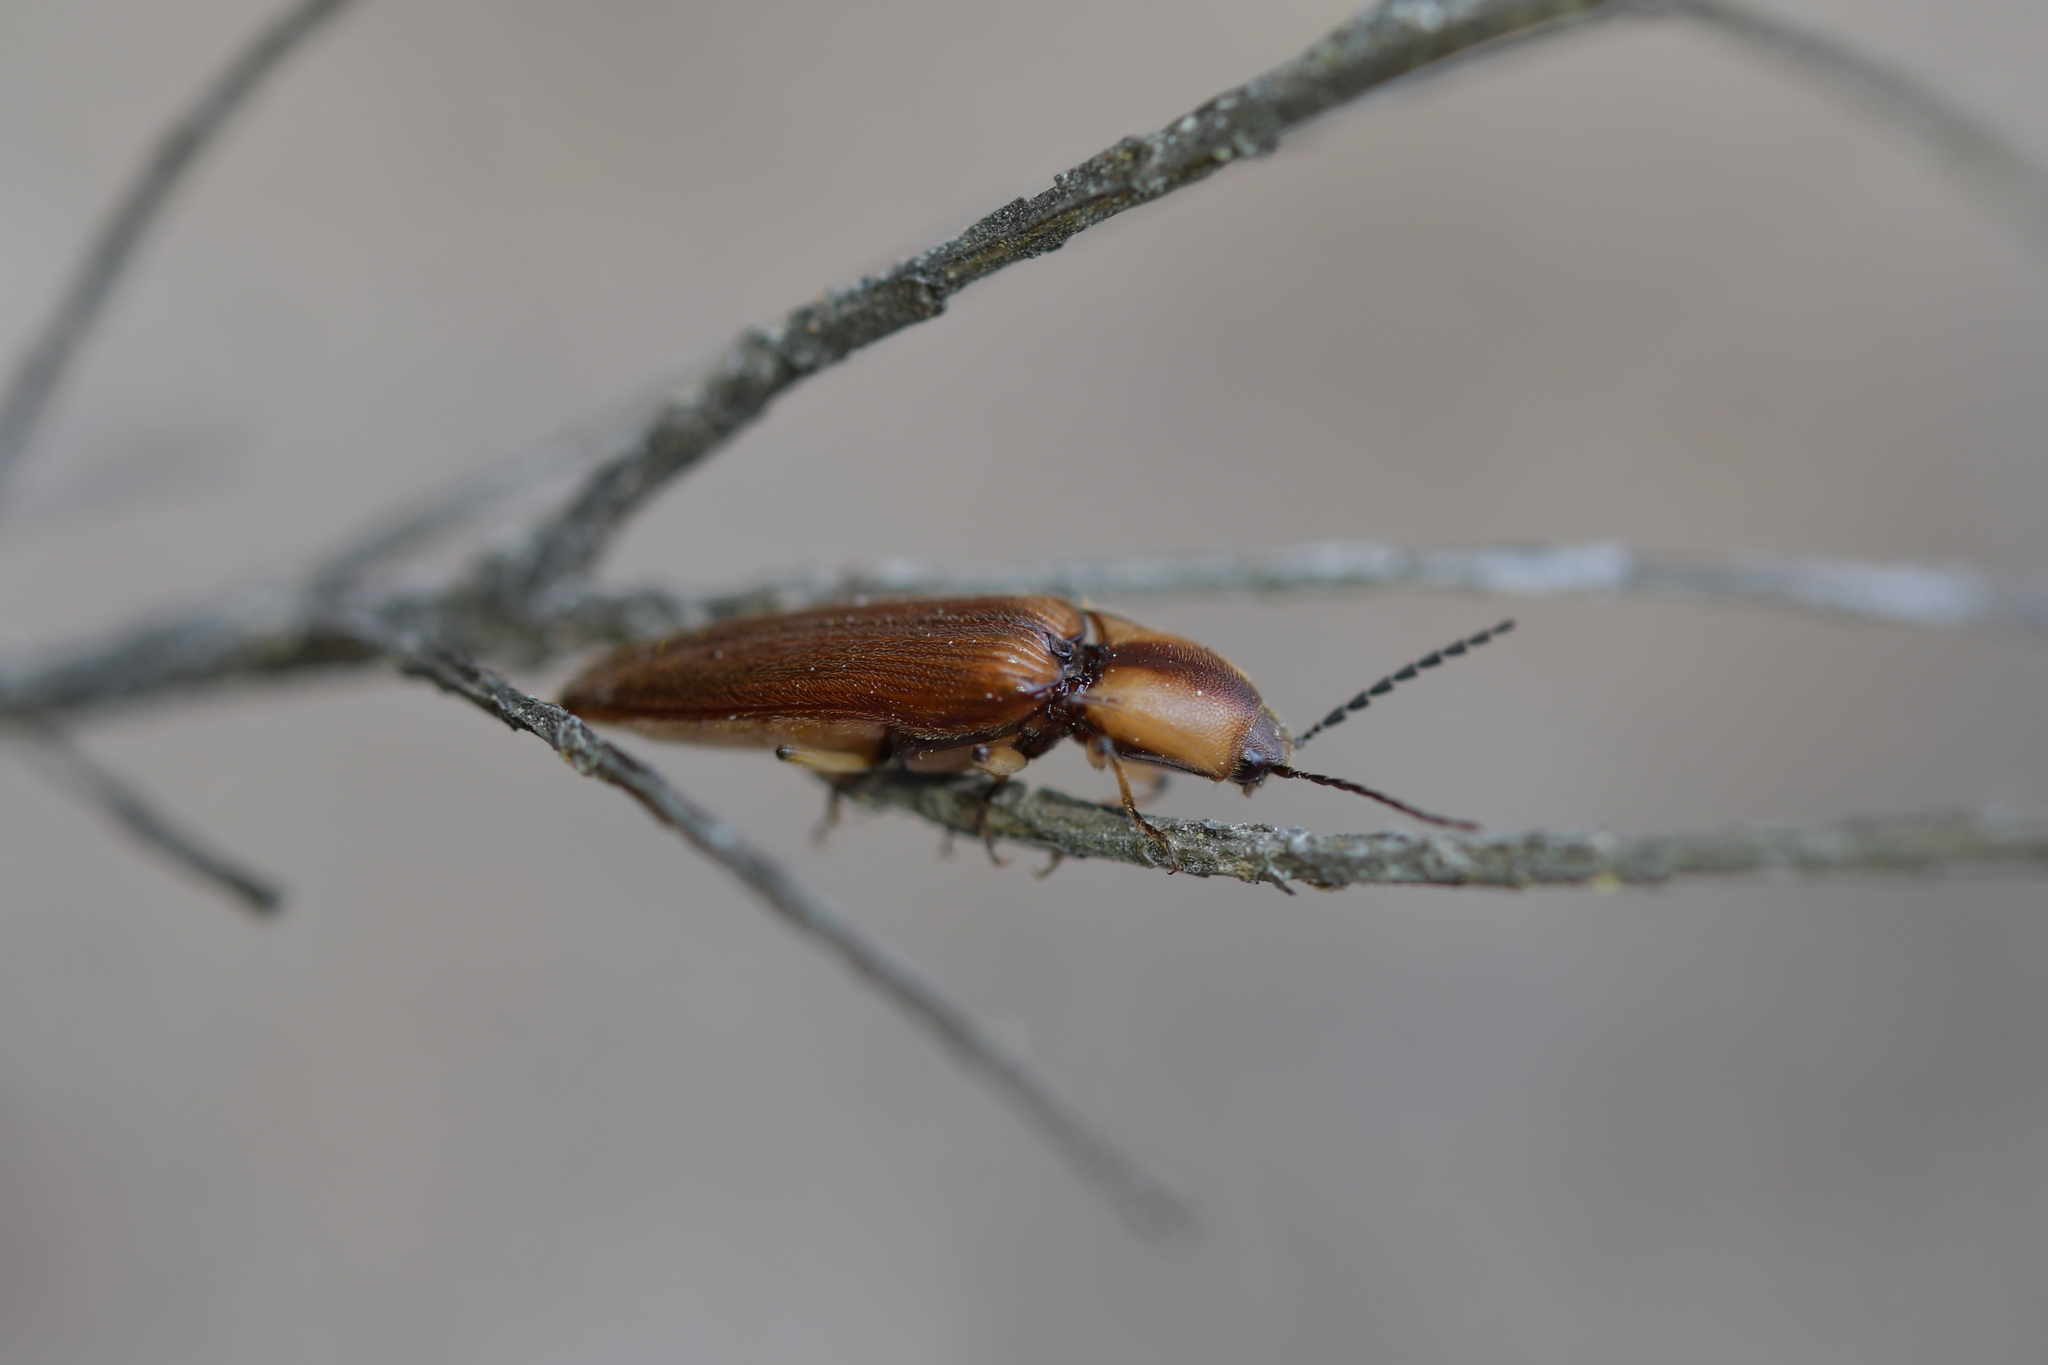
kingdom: Animalia
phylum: Arthropoda
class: Insecta
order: Coleoptera
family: Elateridae
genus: Sphaenelater
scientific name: Sphaenelater
